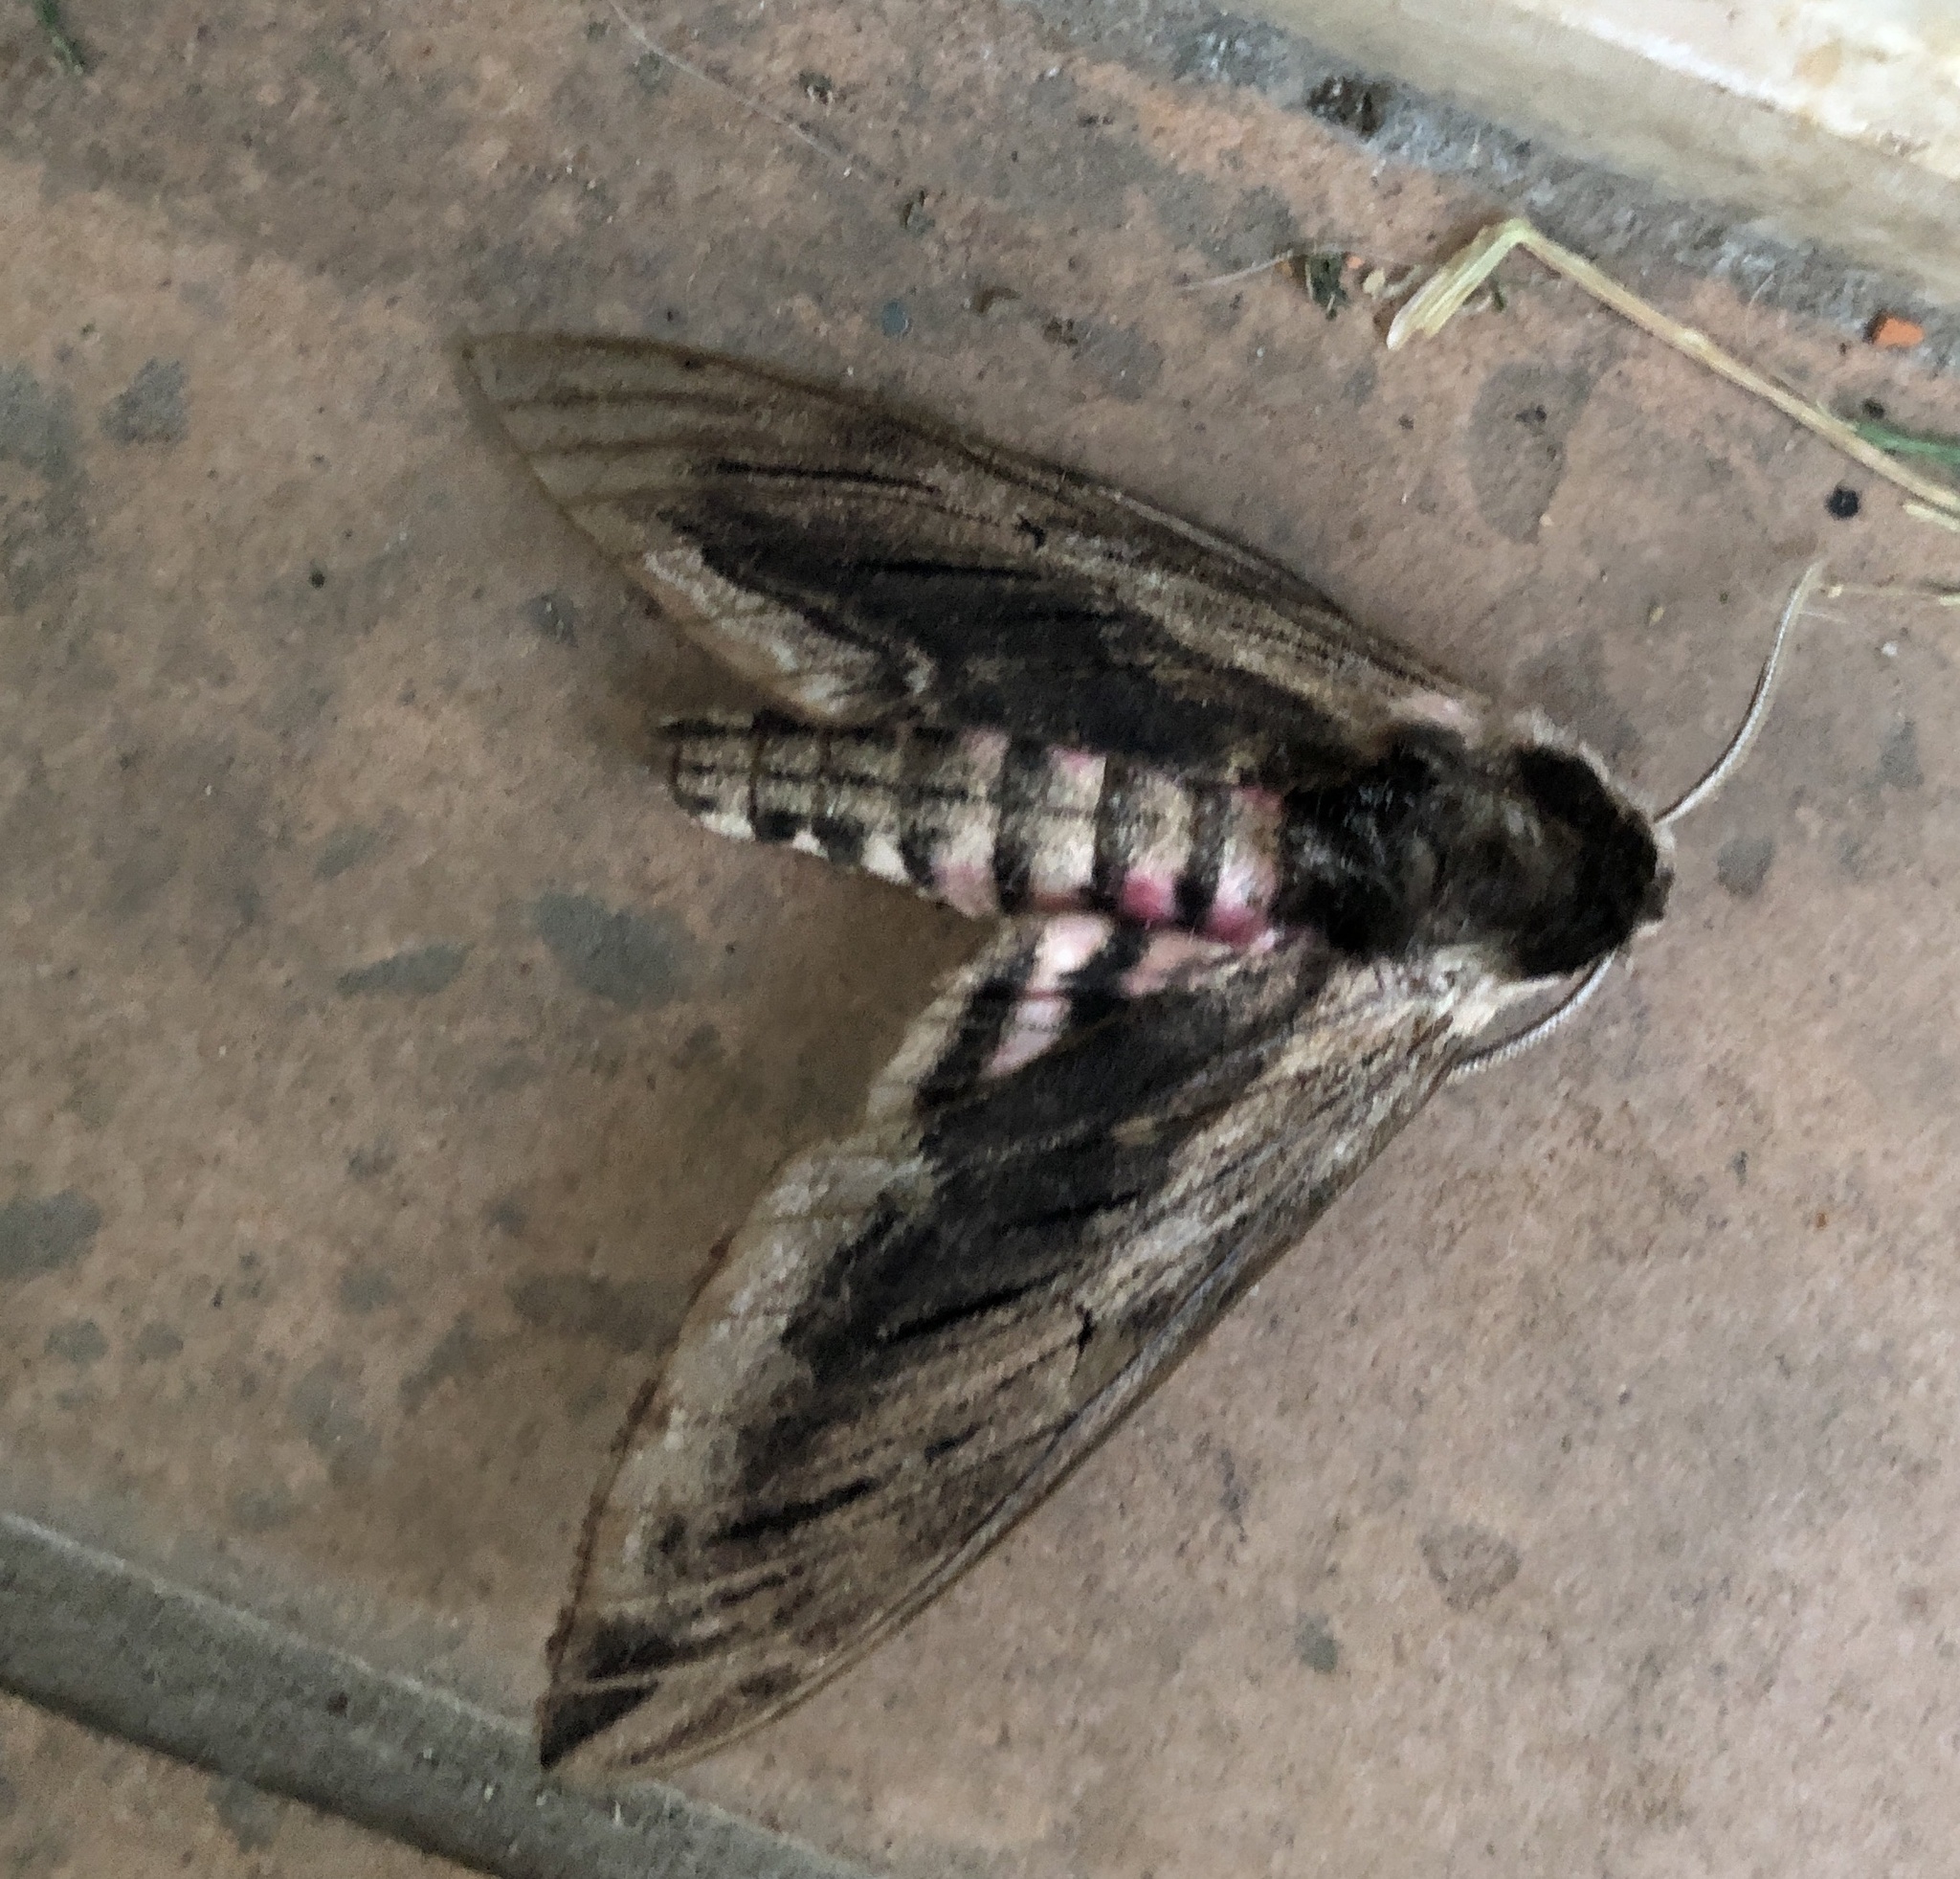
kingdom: Animalia
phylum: Arthropoda
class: Insecta
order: Lepidoptera
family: Sphingidae
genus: Sphinx
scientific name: Sphinx ligustri
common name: Privet hawk-moth
